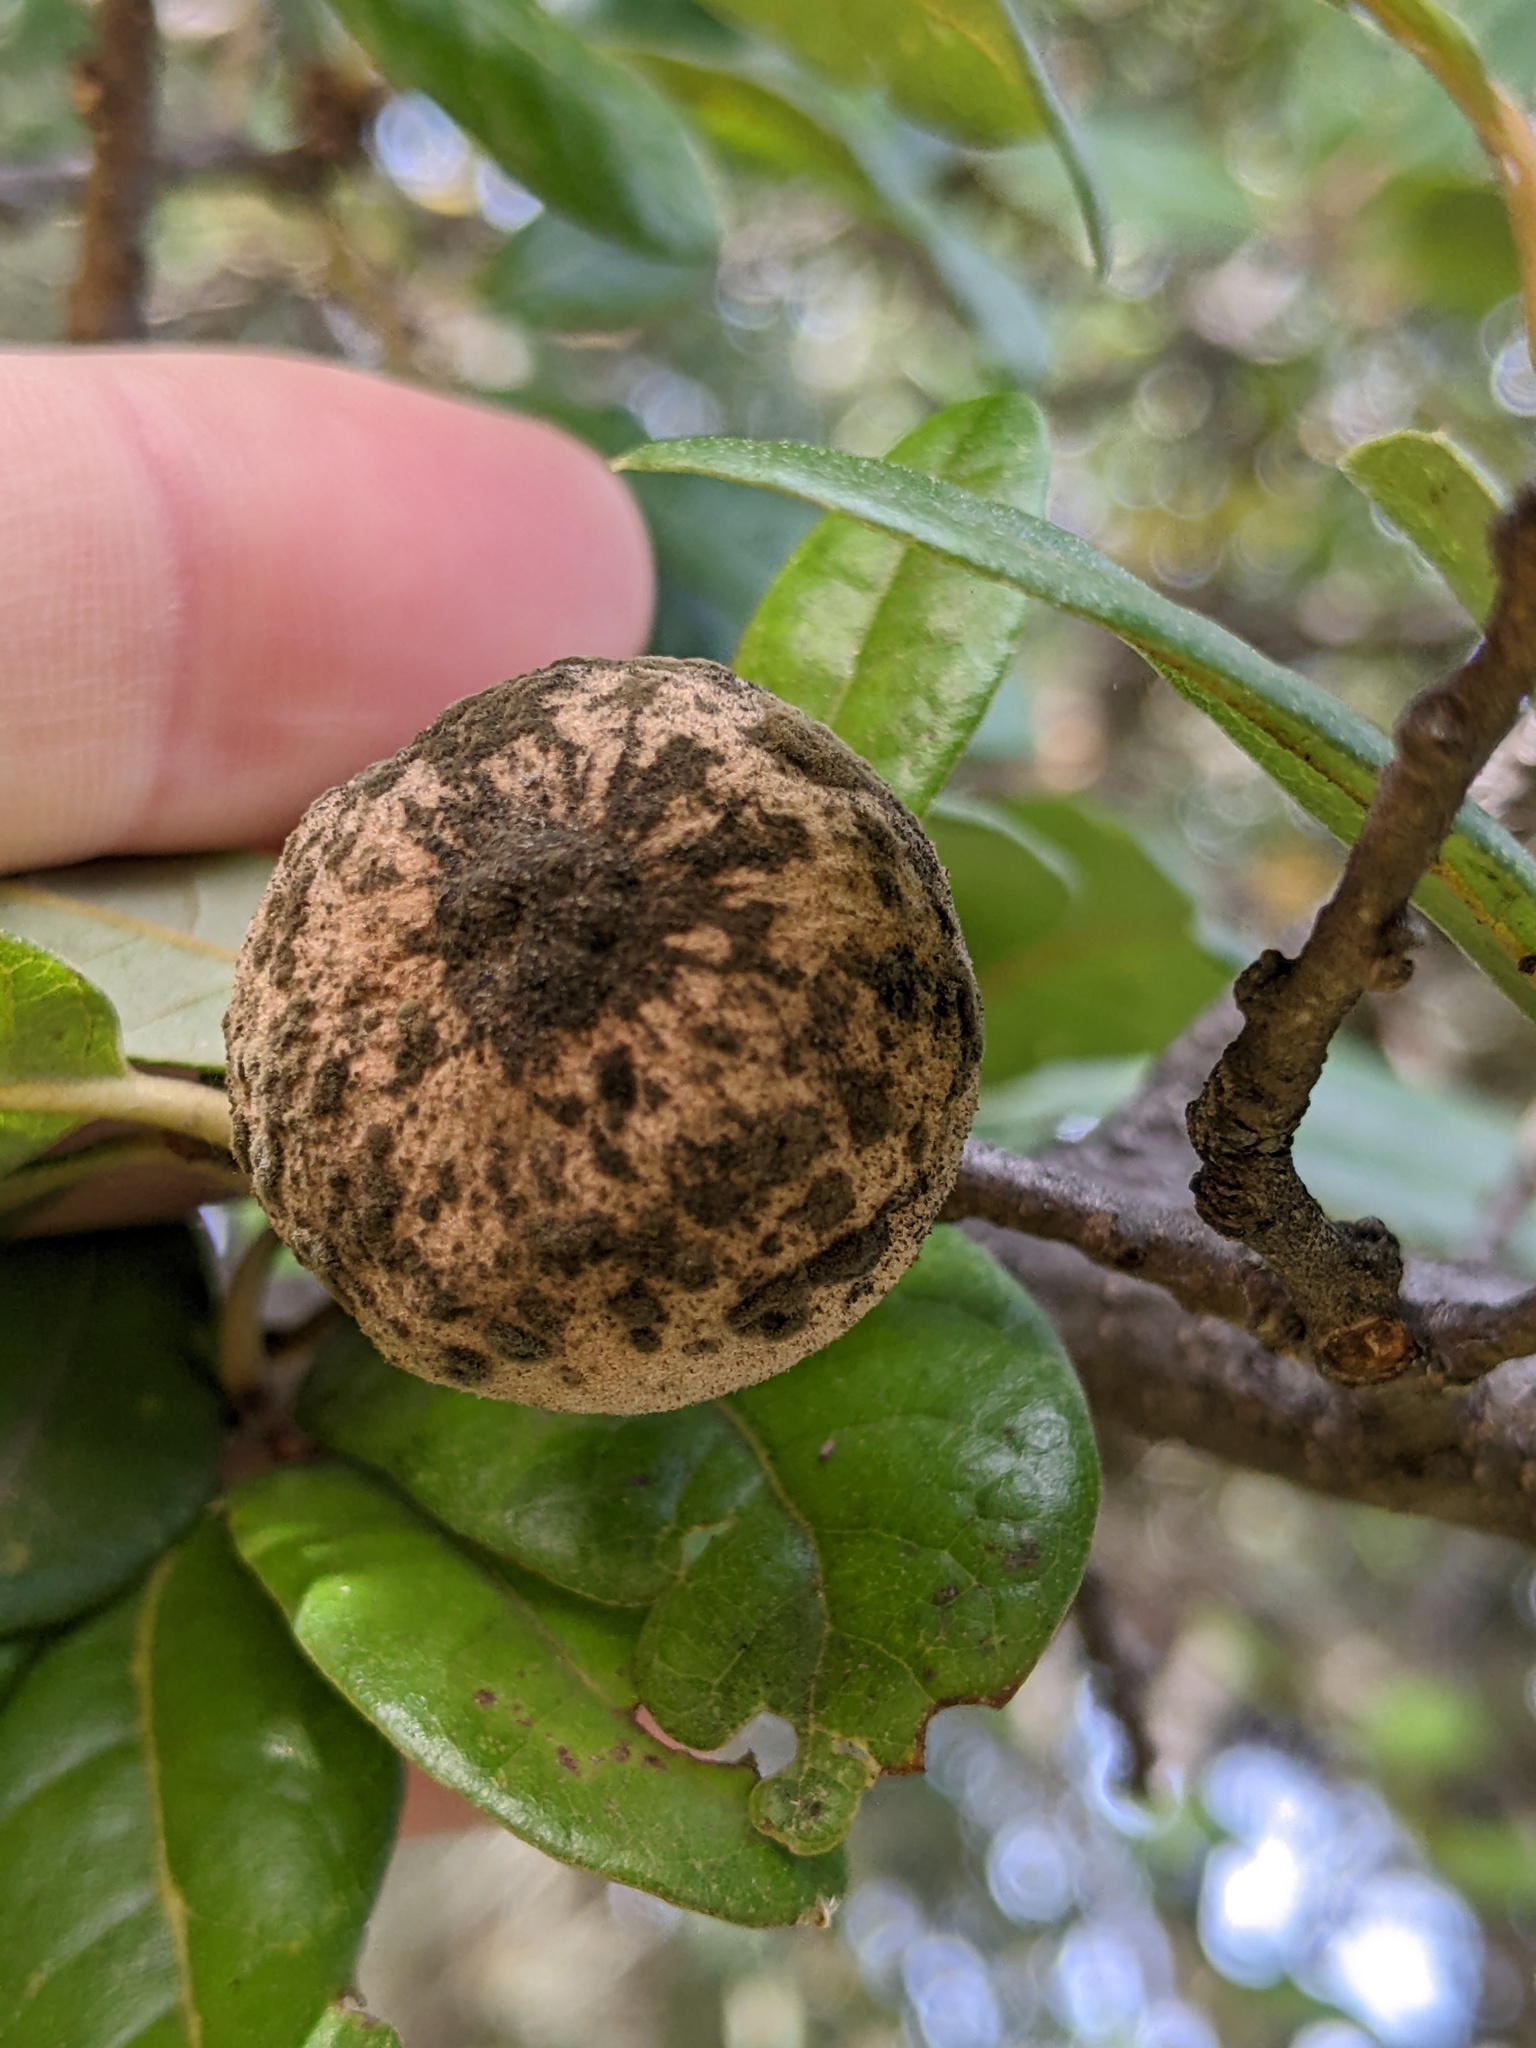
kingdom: Animalia
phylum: Arthropoda
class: Insecta
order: Hymenoptera
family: Cynipidae
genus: Disholcaspis
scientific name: Disholcaspis
